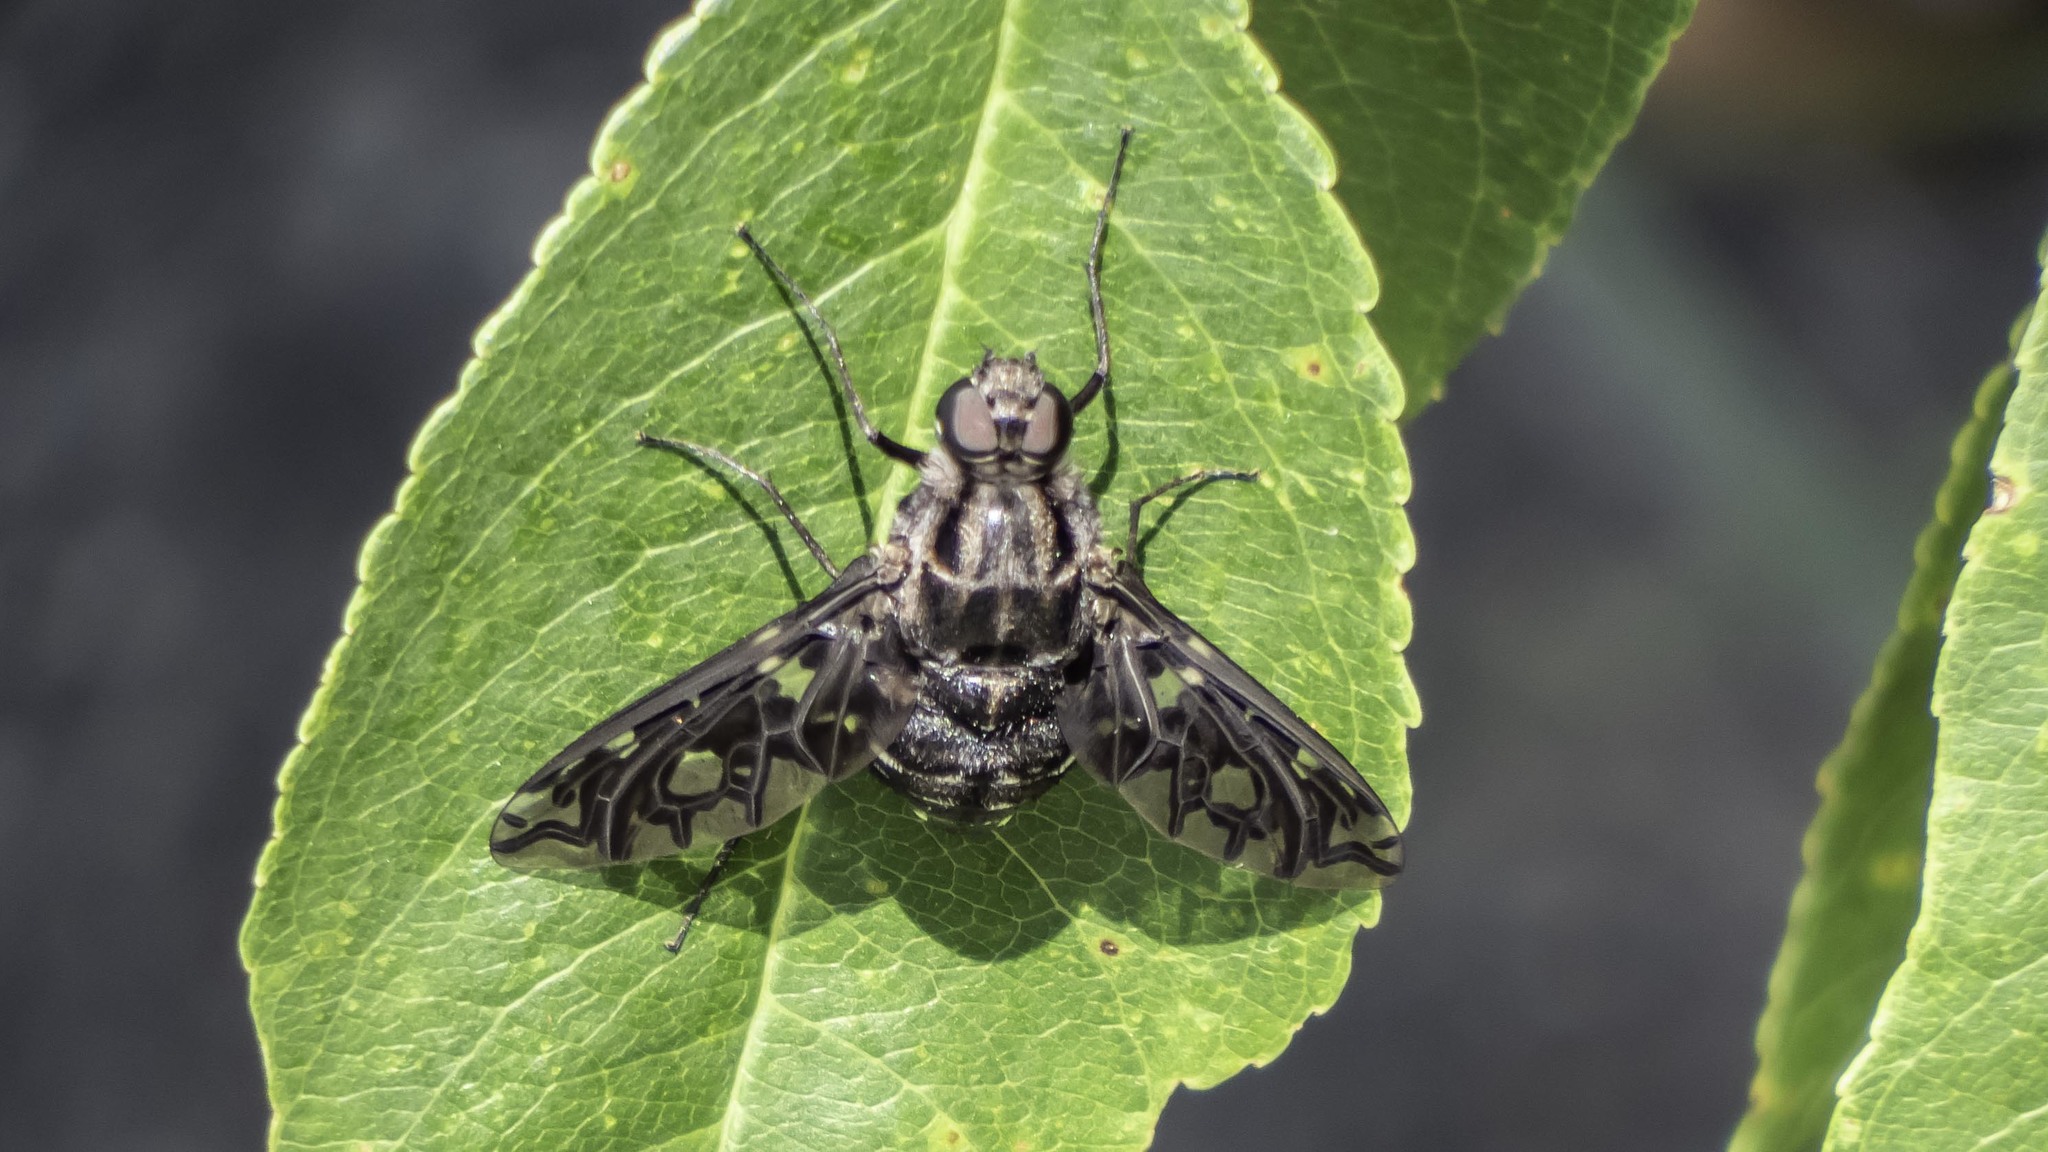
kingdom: Animalia
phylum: Arthropoda
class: Insecta
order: Diptera
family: Bombyliidae
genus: Xenox
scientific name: Xenox tigrinus
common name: Tiger bee fly
